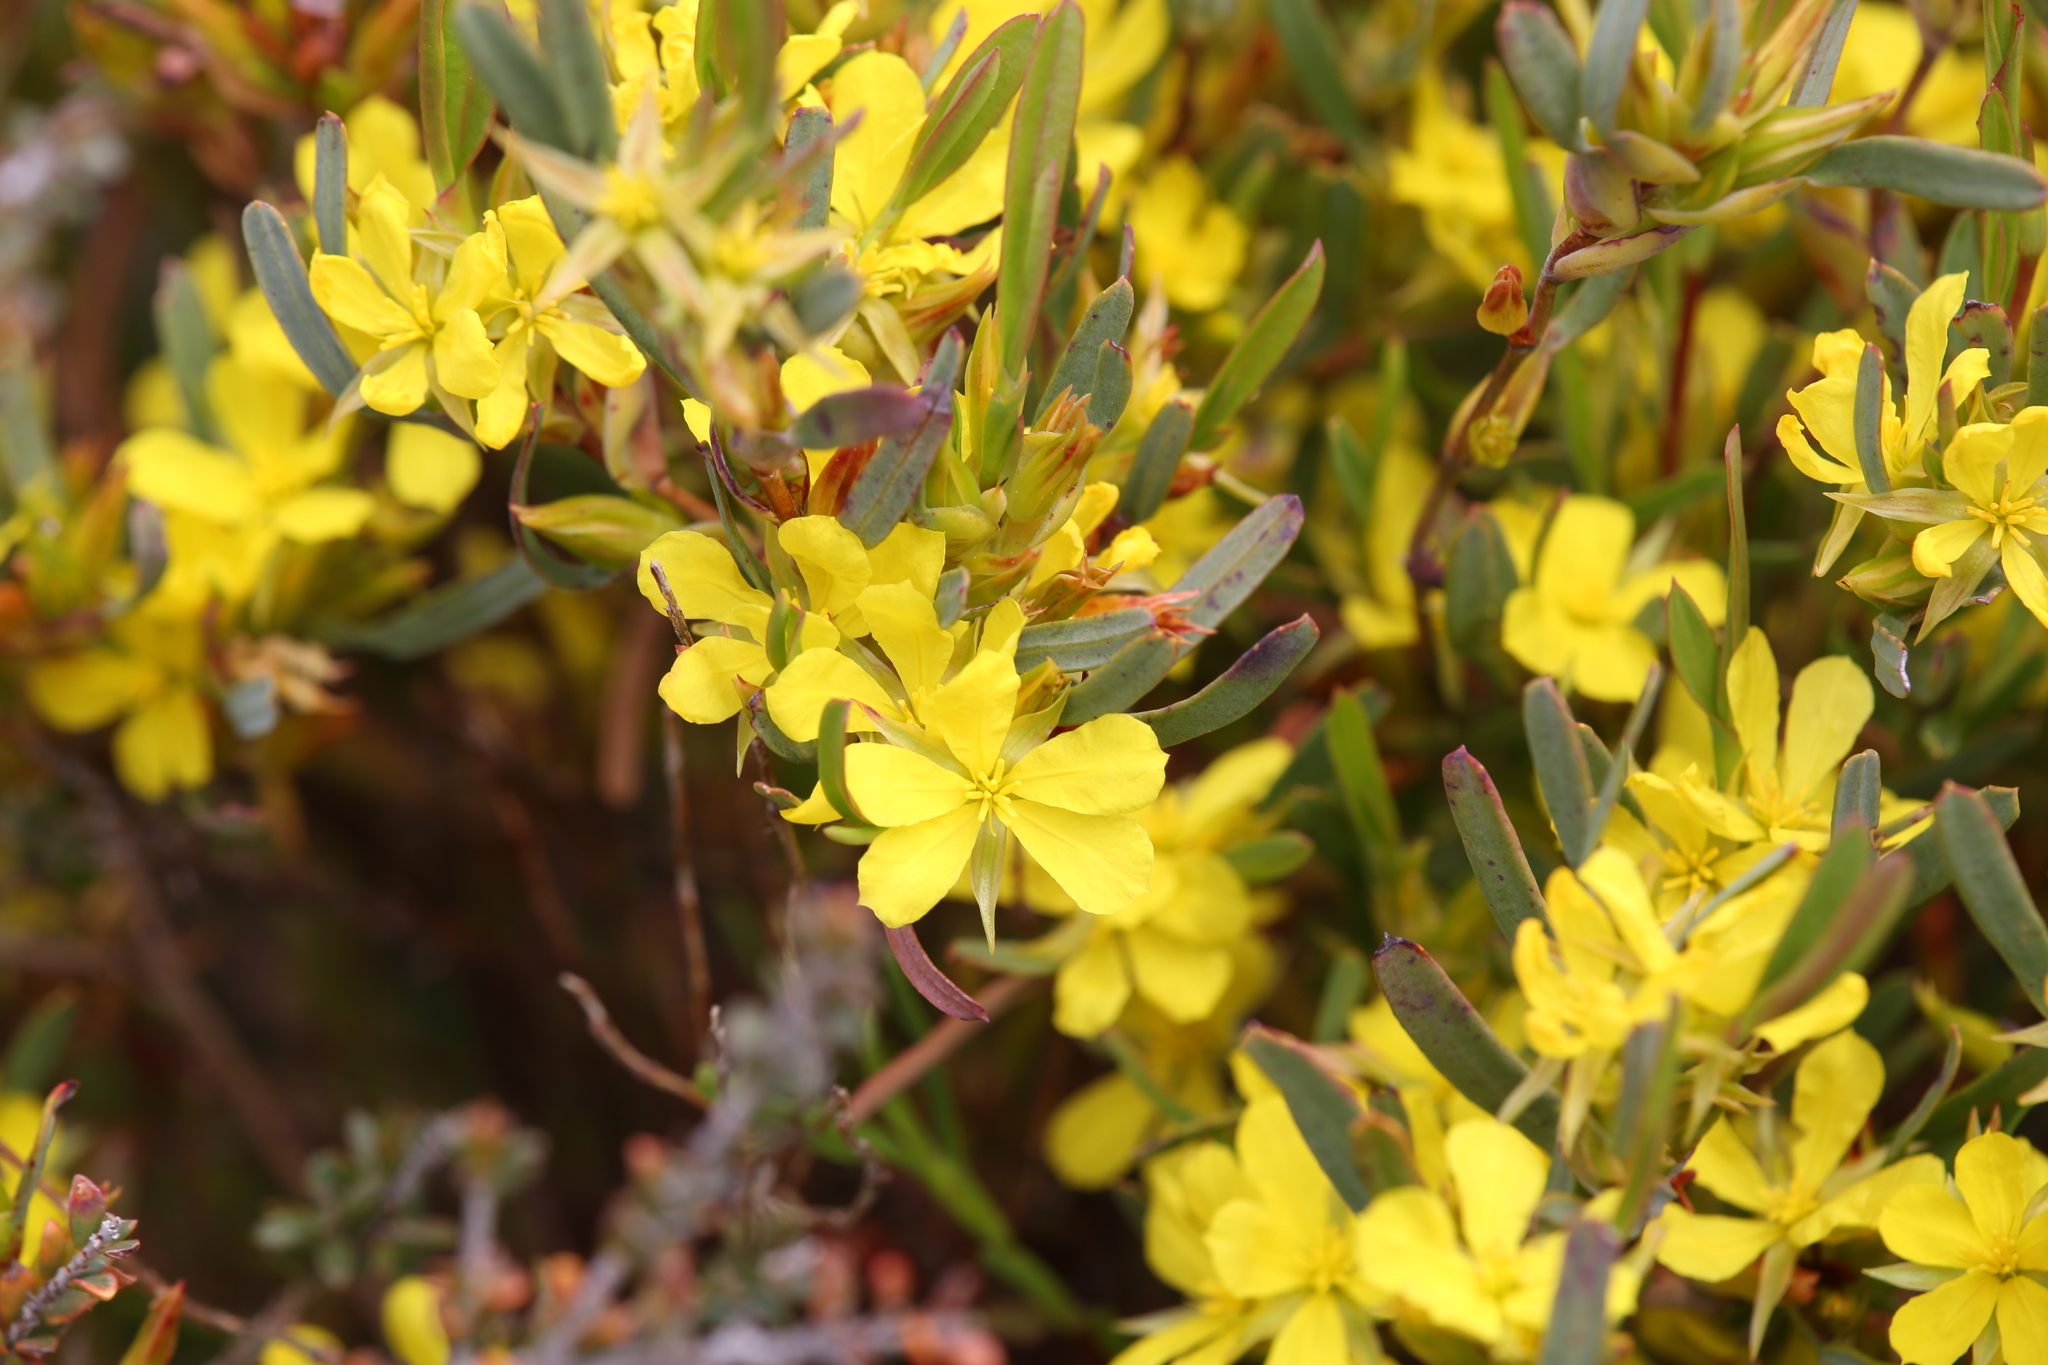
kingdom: Plantae
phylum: Tracheophyta
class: Magnoliopsida
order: Dilleniales
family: Dilleniaceae
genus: Hibbertia
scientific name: Hibbertia subvaginata
